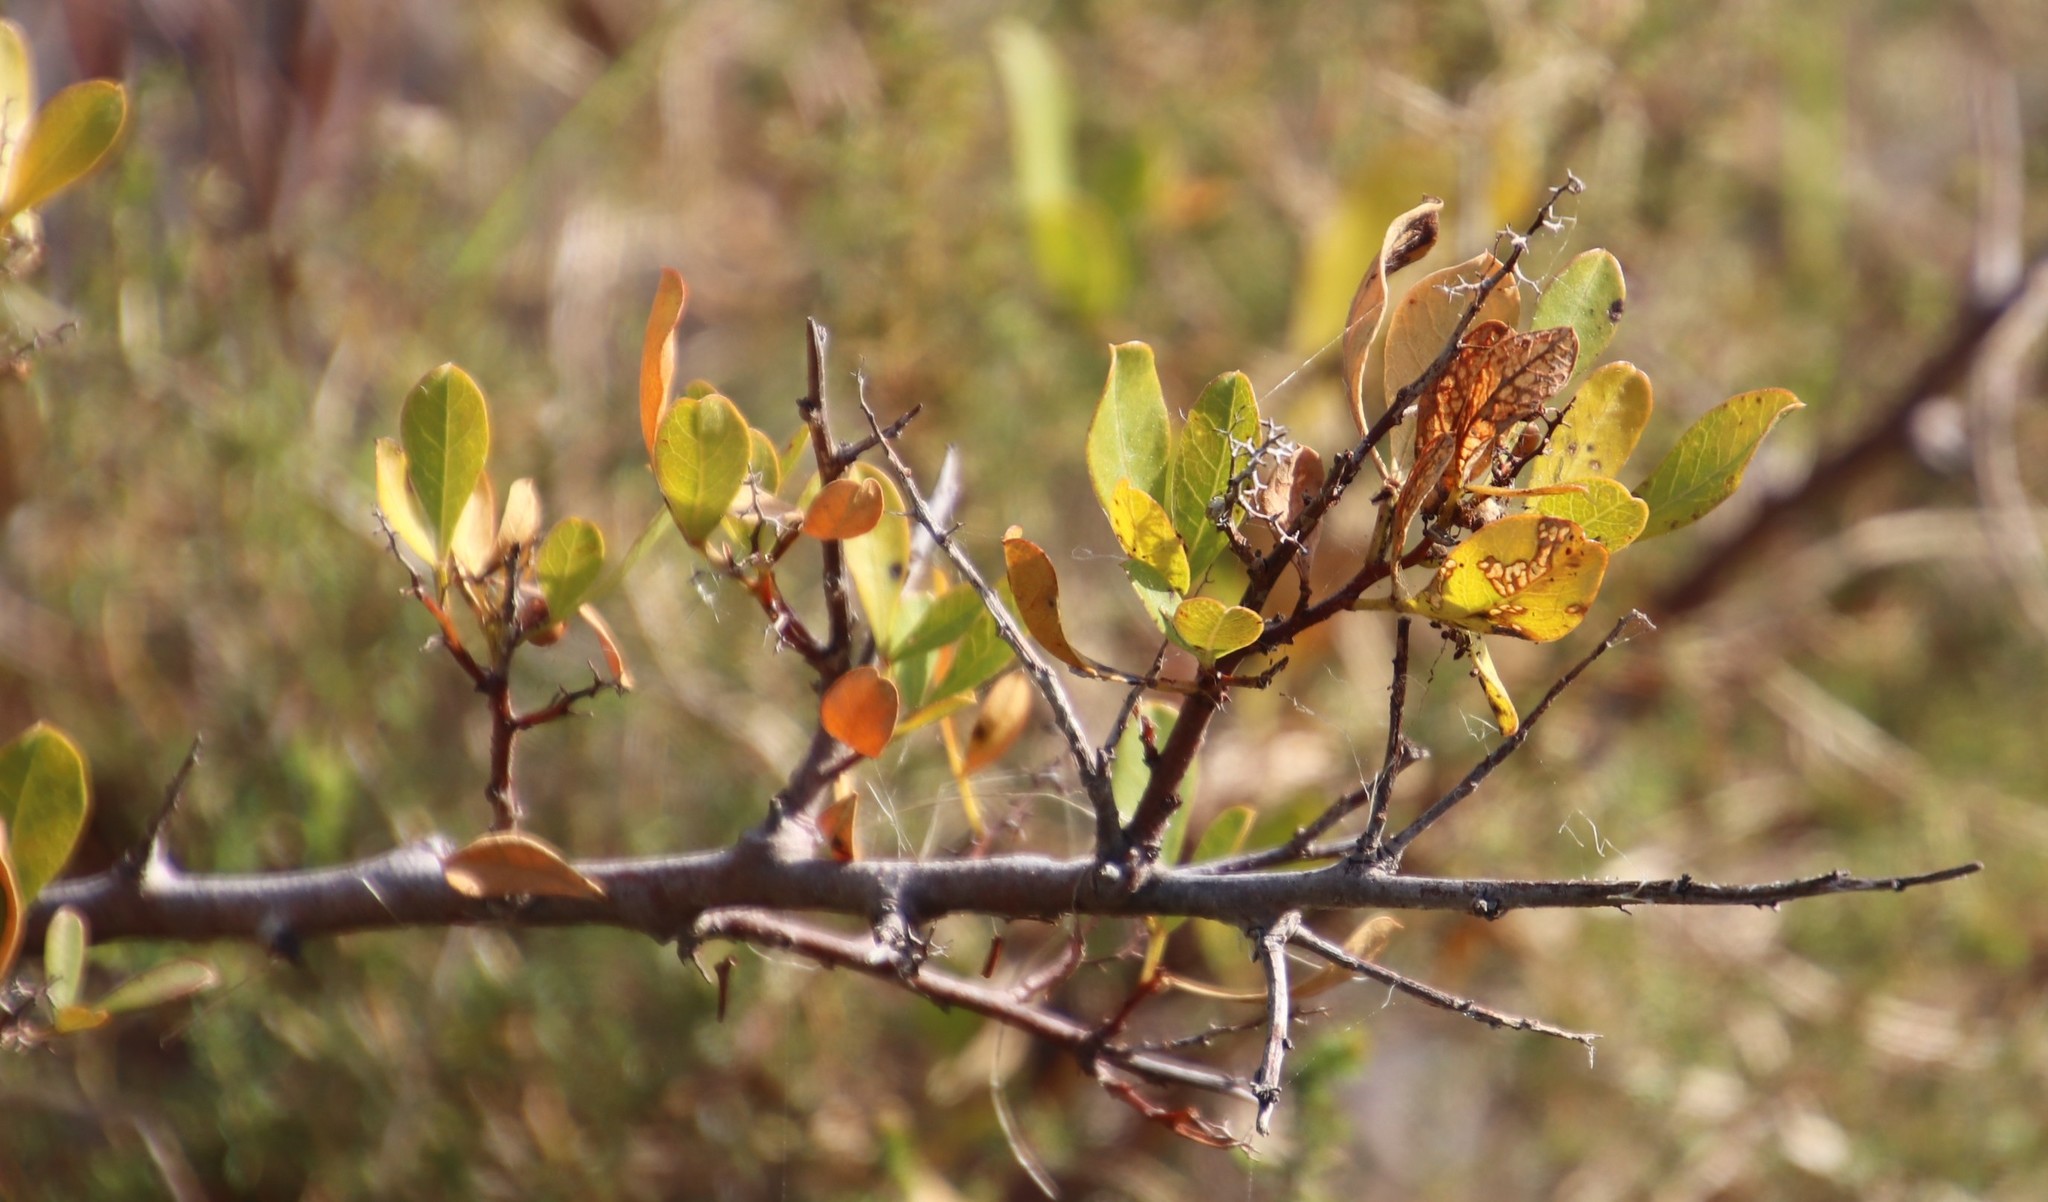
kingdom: Plantae
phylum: Tracheophyta
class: Magnoliopsida
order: Sapindales
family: Anacardiaceae
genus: Searsia
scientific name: Searsia laevigata
